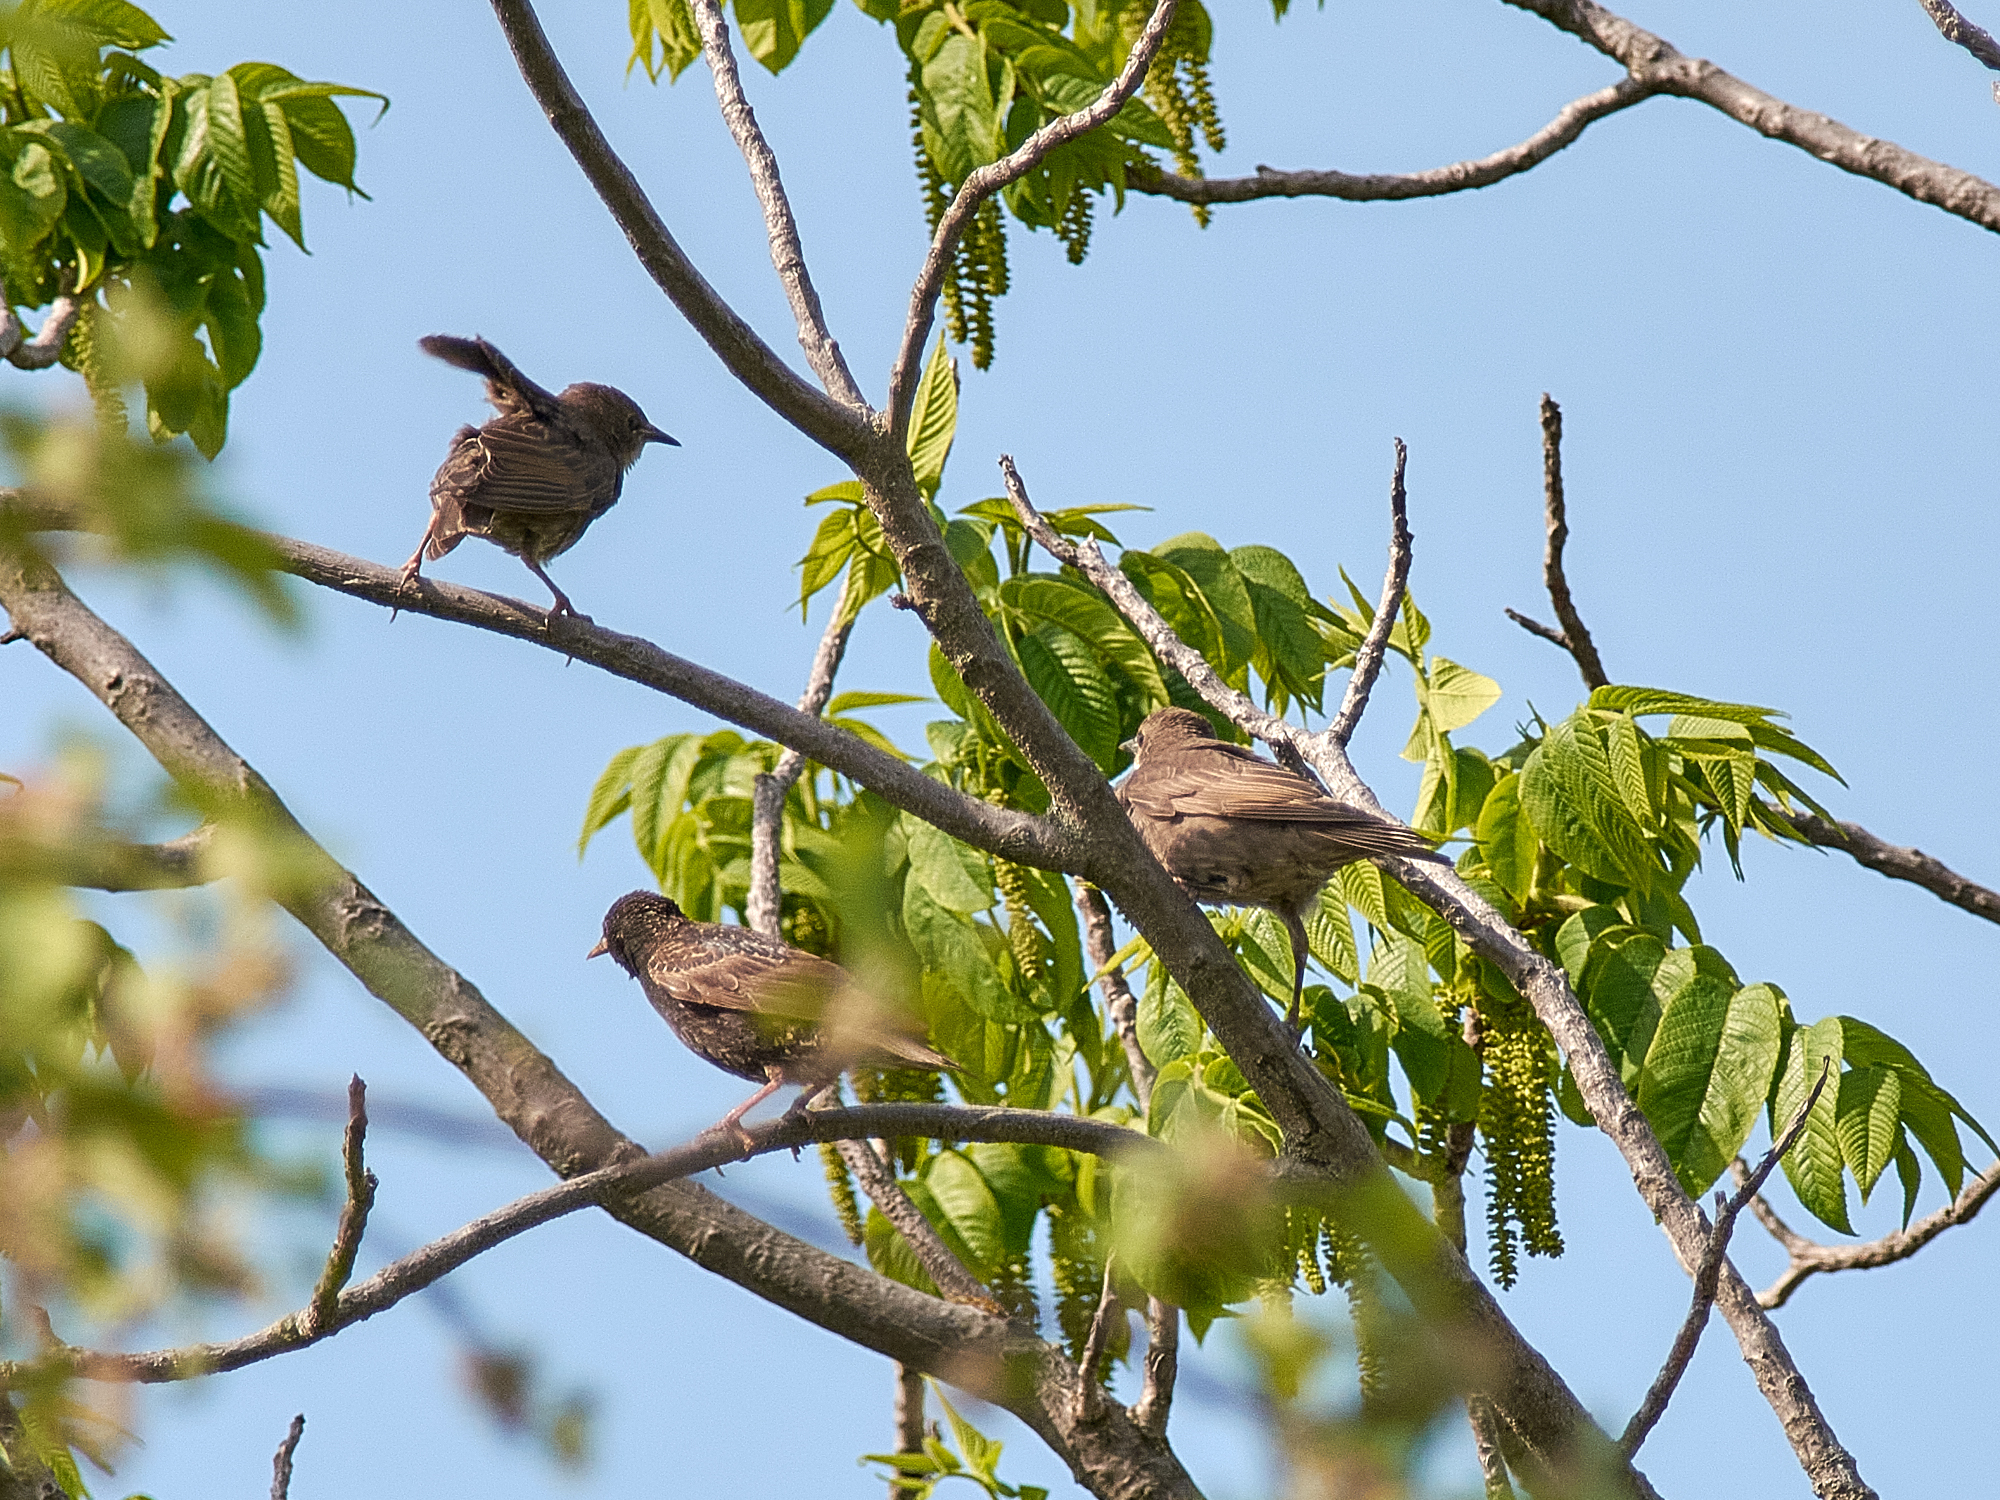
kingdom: Animalia
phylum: Chordata
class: Aves
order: Passeriformes
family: Sturnidae
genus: Sturnus
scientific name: Sturnus vulgaris
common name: Common starling
